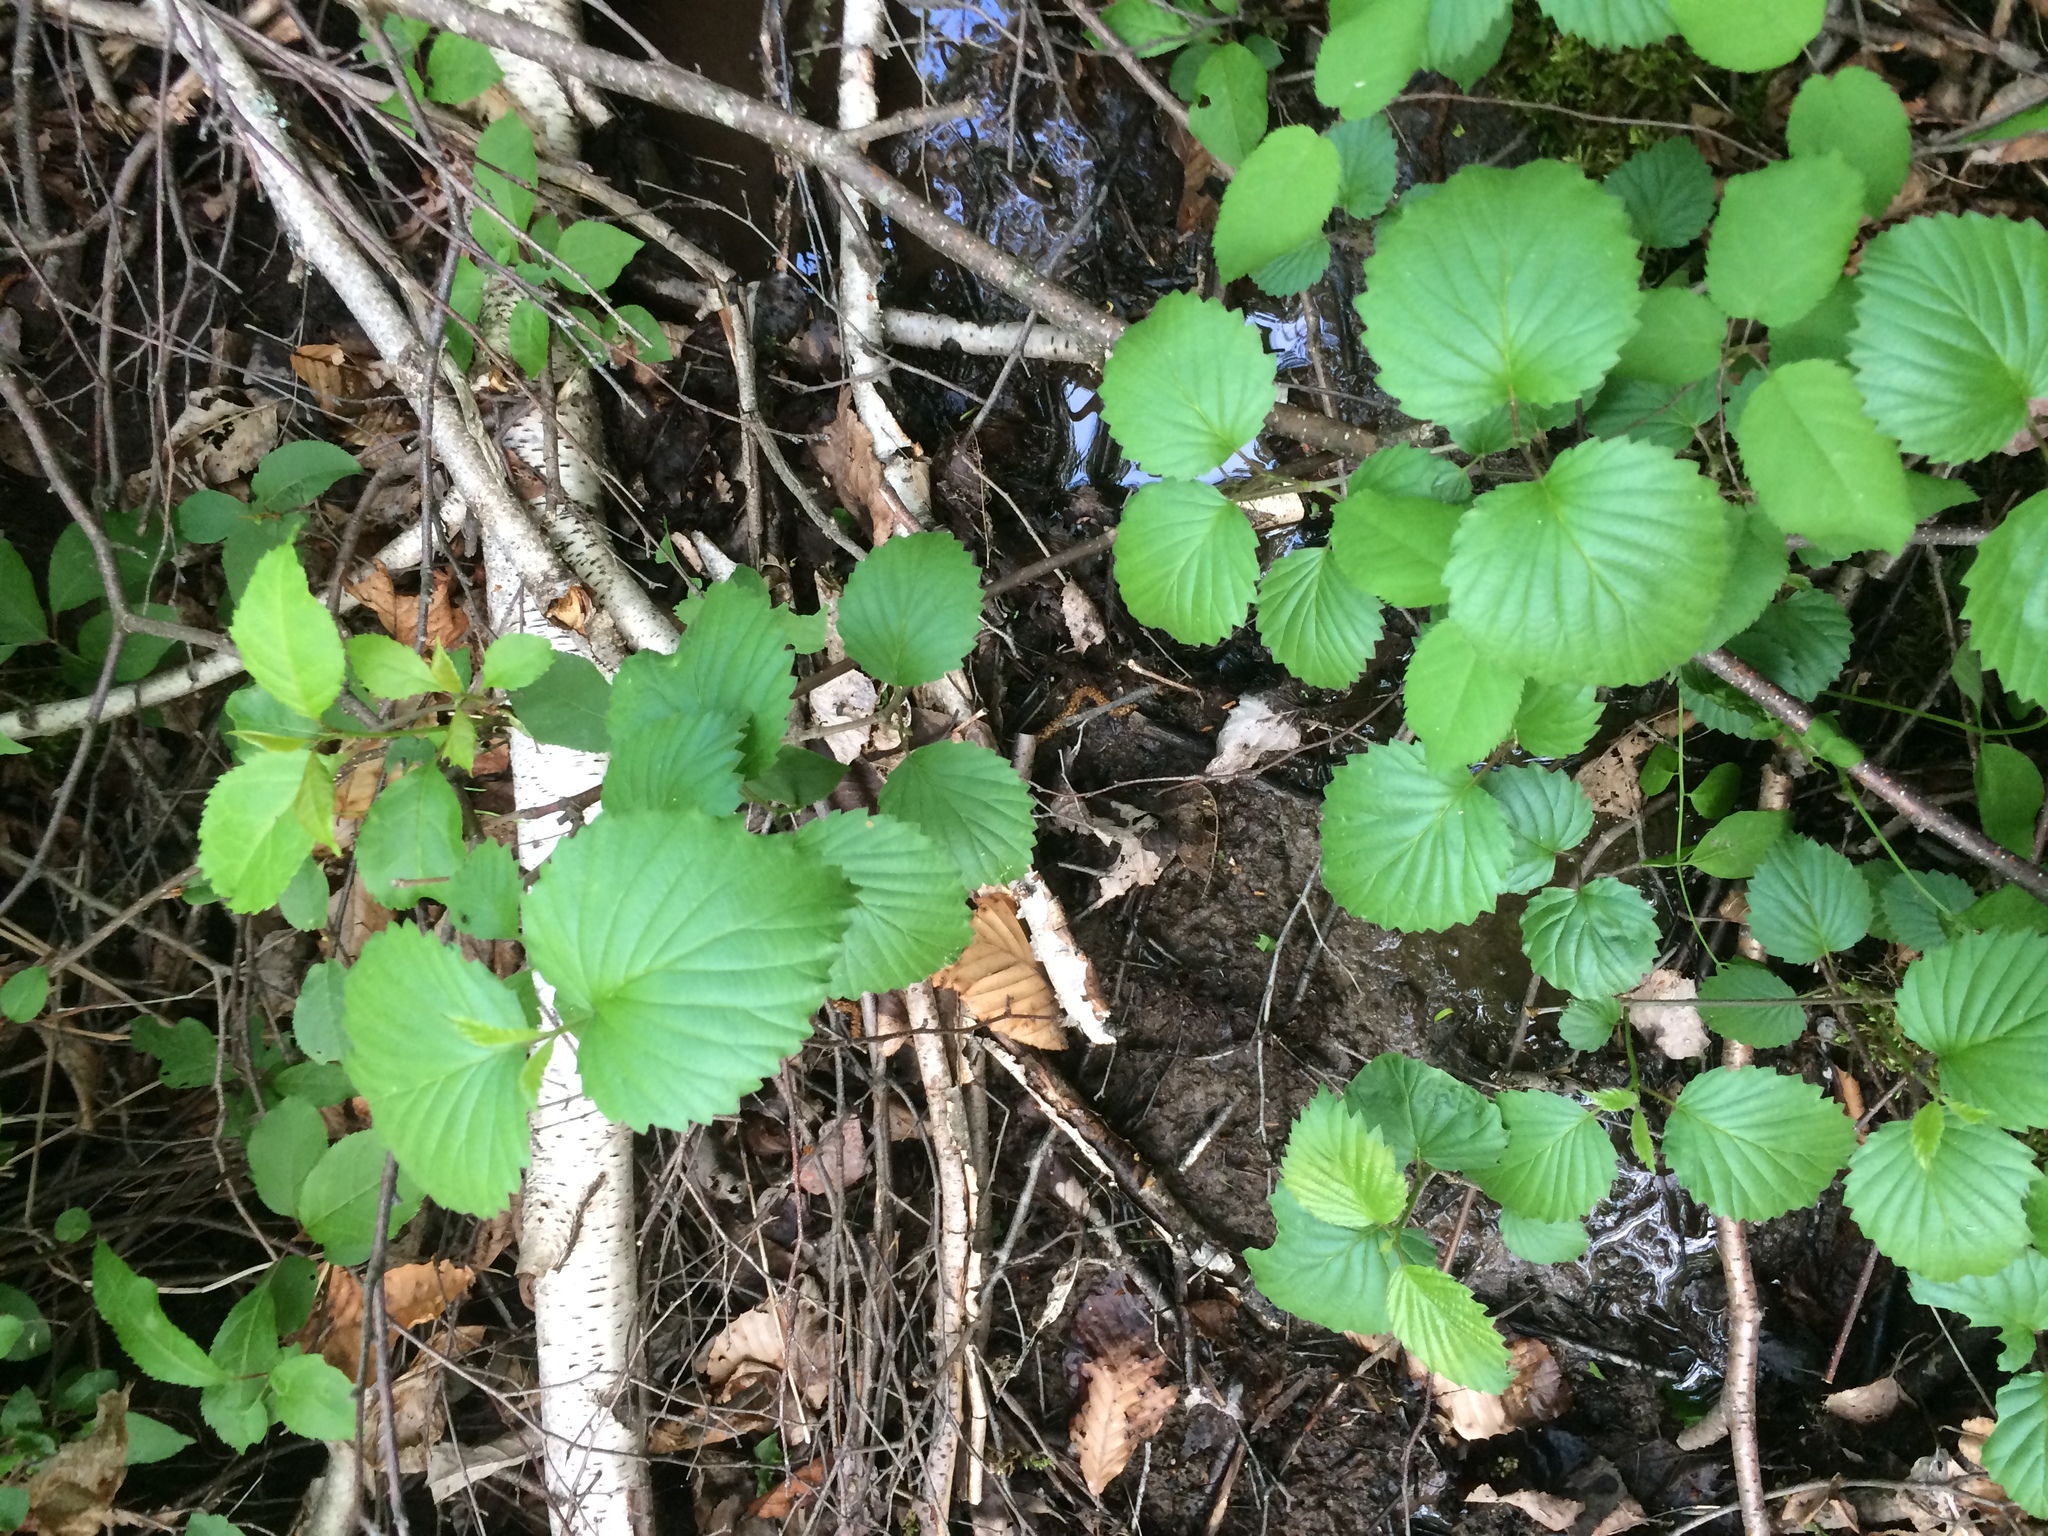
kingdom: Plantae
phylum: Tracheophyta
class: Magnoliopsida
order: Dipsacales
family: Viburnaceae
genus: Viburnum
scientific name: Viburnum recognitum
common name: Northern arrow-wood
